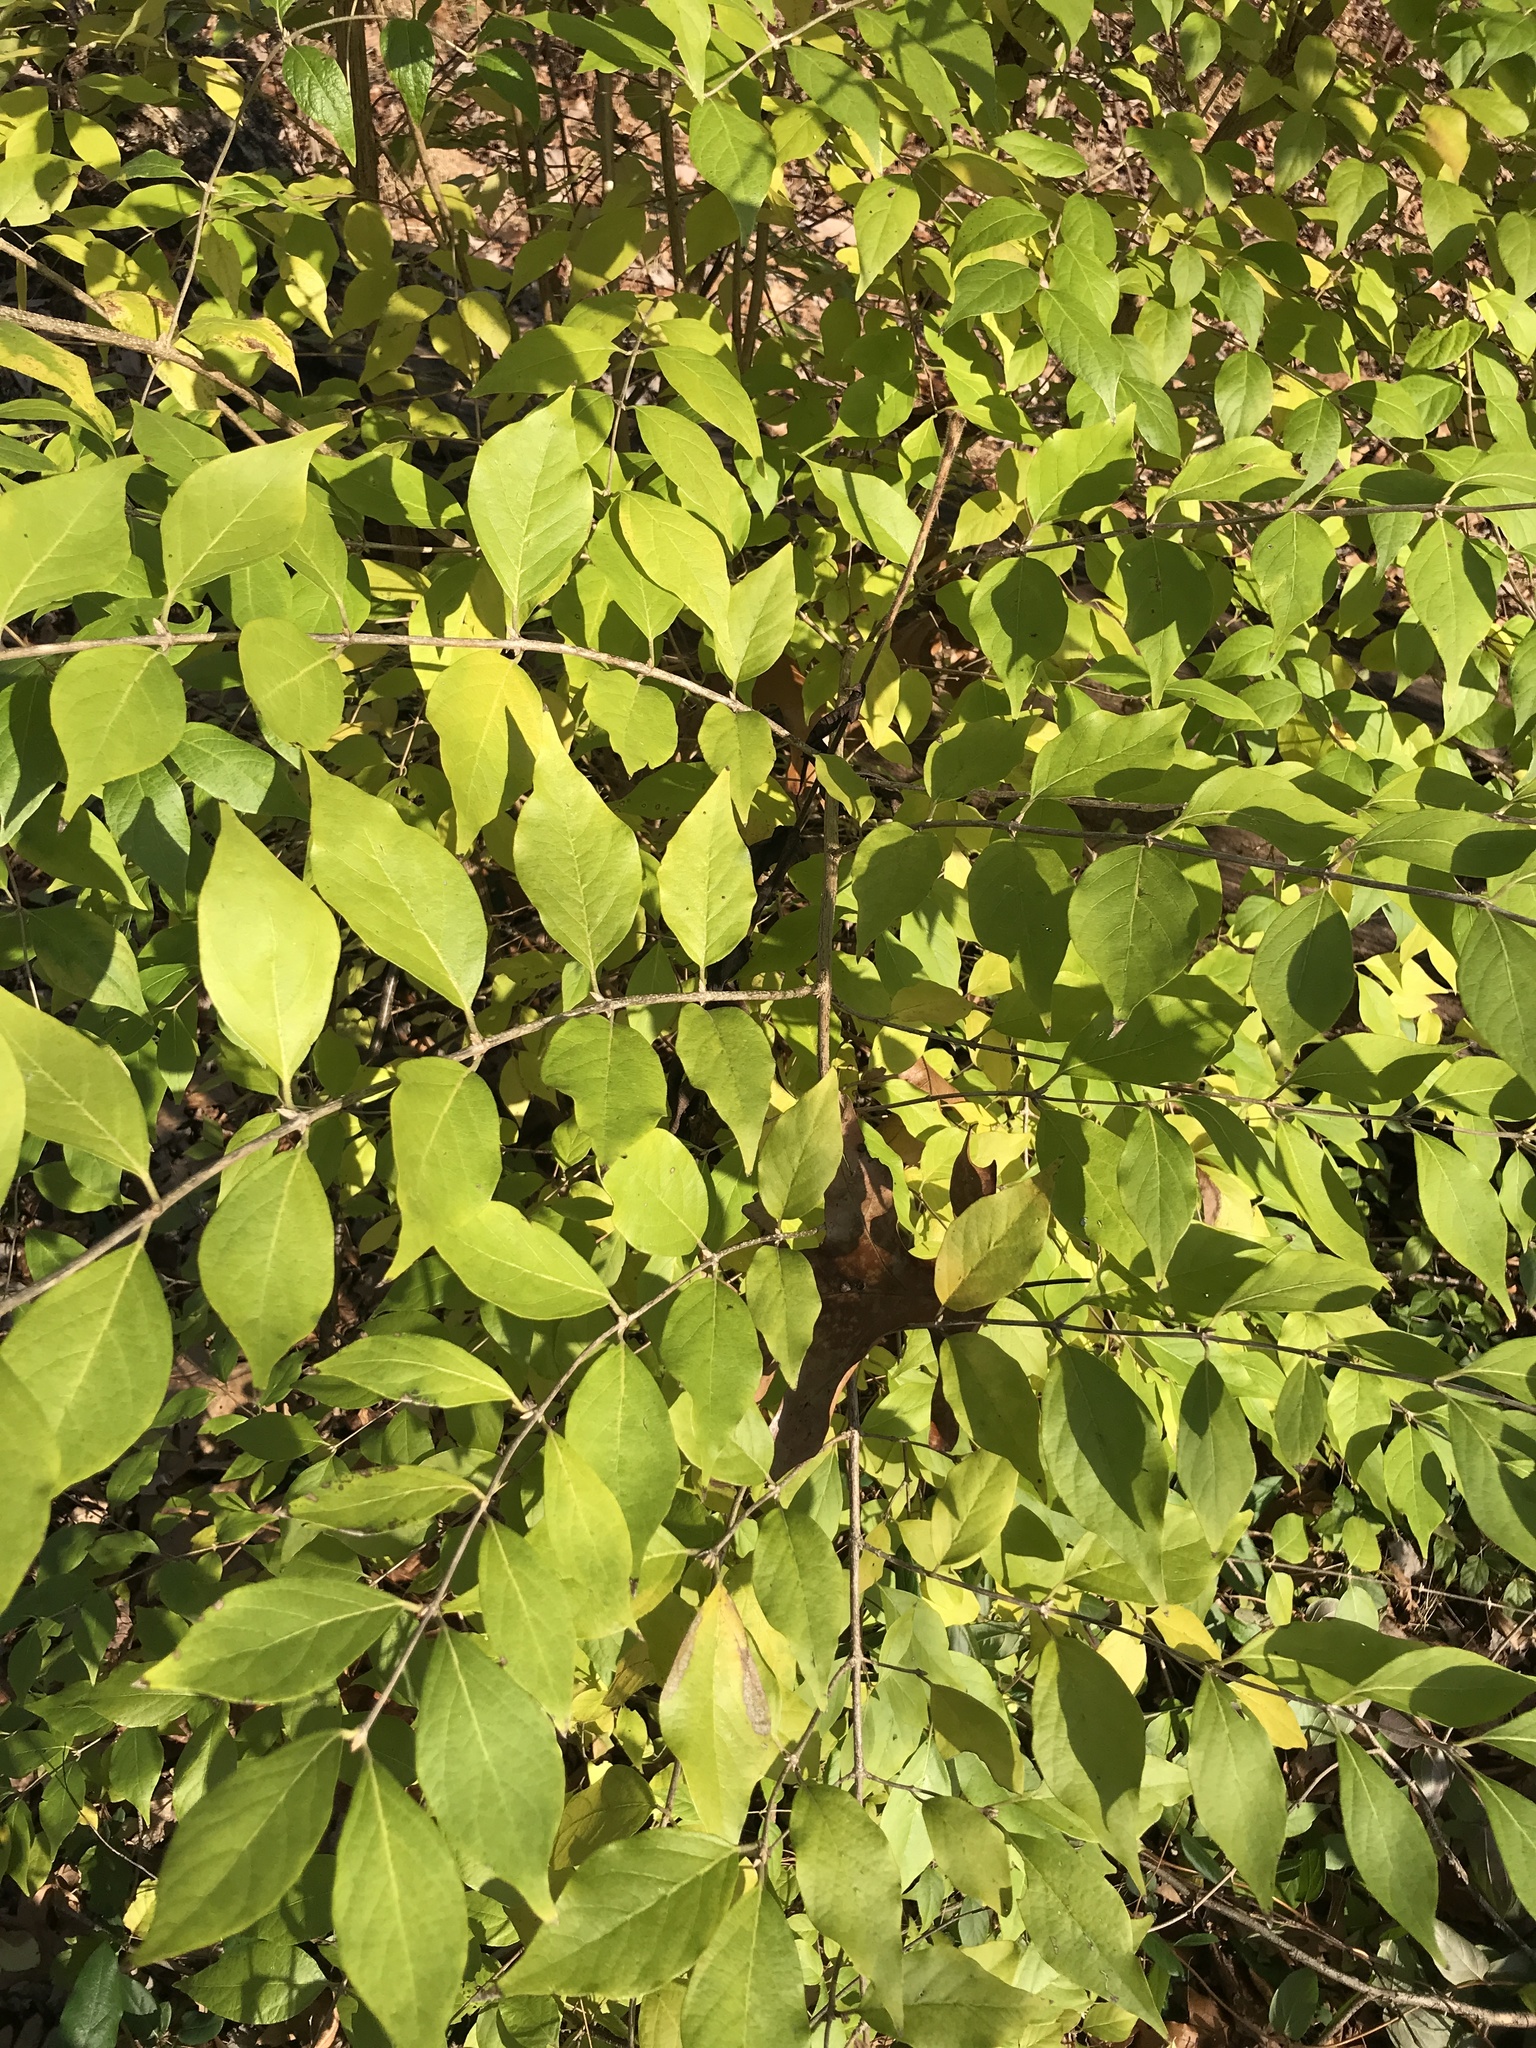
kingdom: Plantae
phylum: Tracheophyta
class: Magnoliopsida
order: Dipsacales
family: Caprifoliaceae
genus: Lonicera
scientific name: Lonicera maackii
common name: Amur honeysuckle
